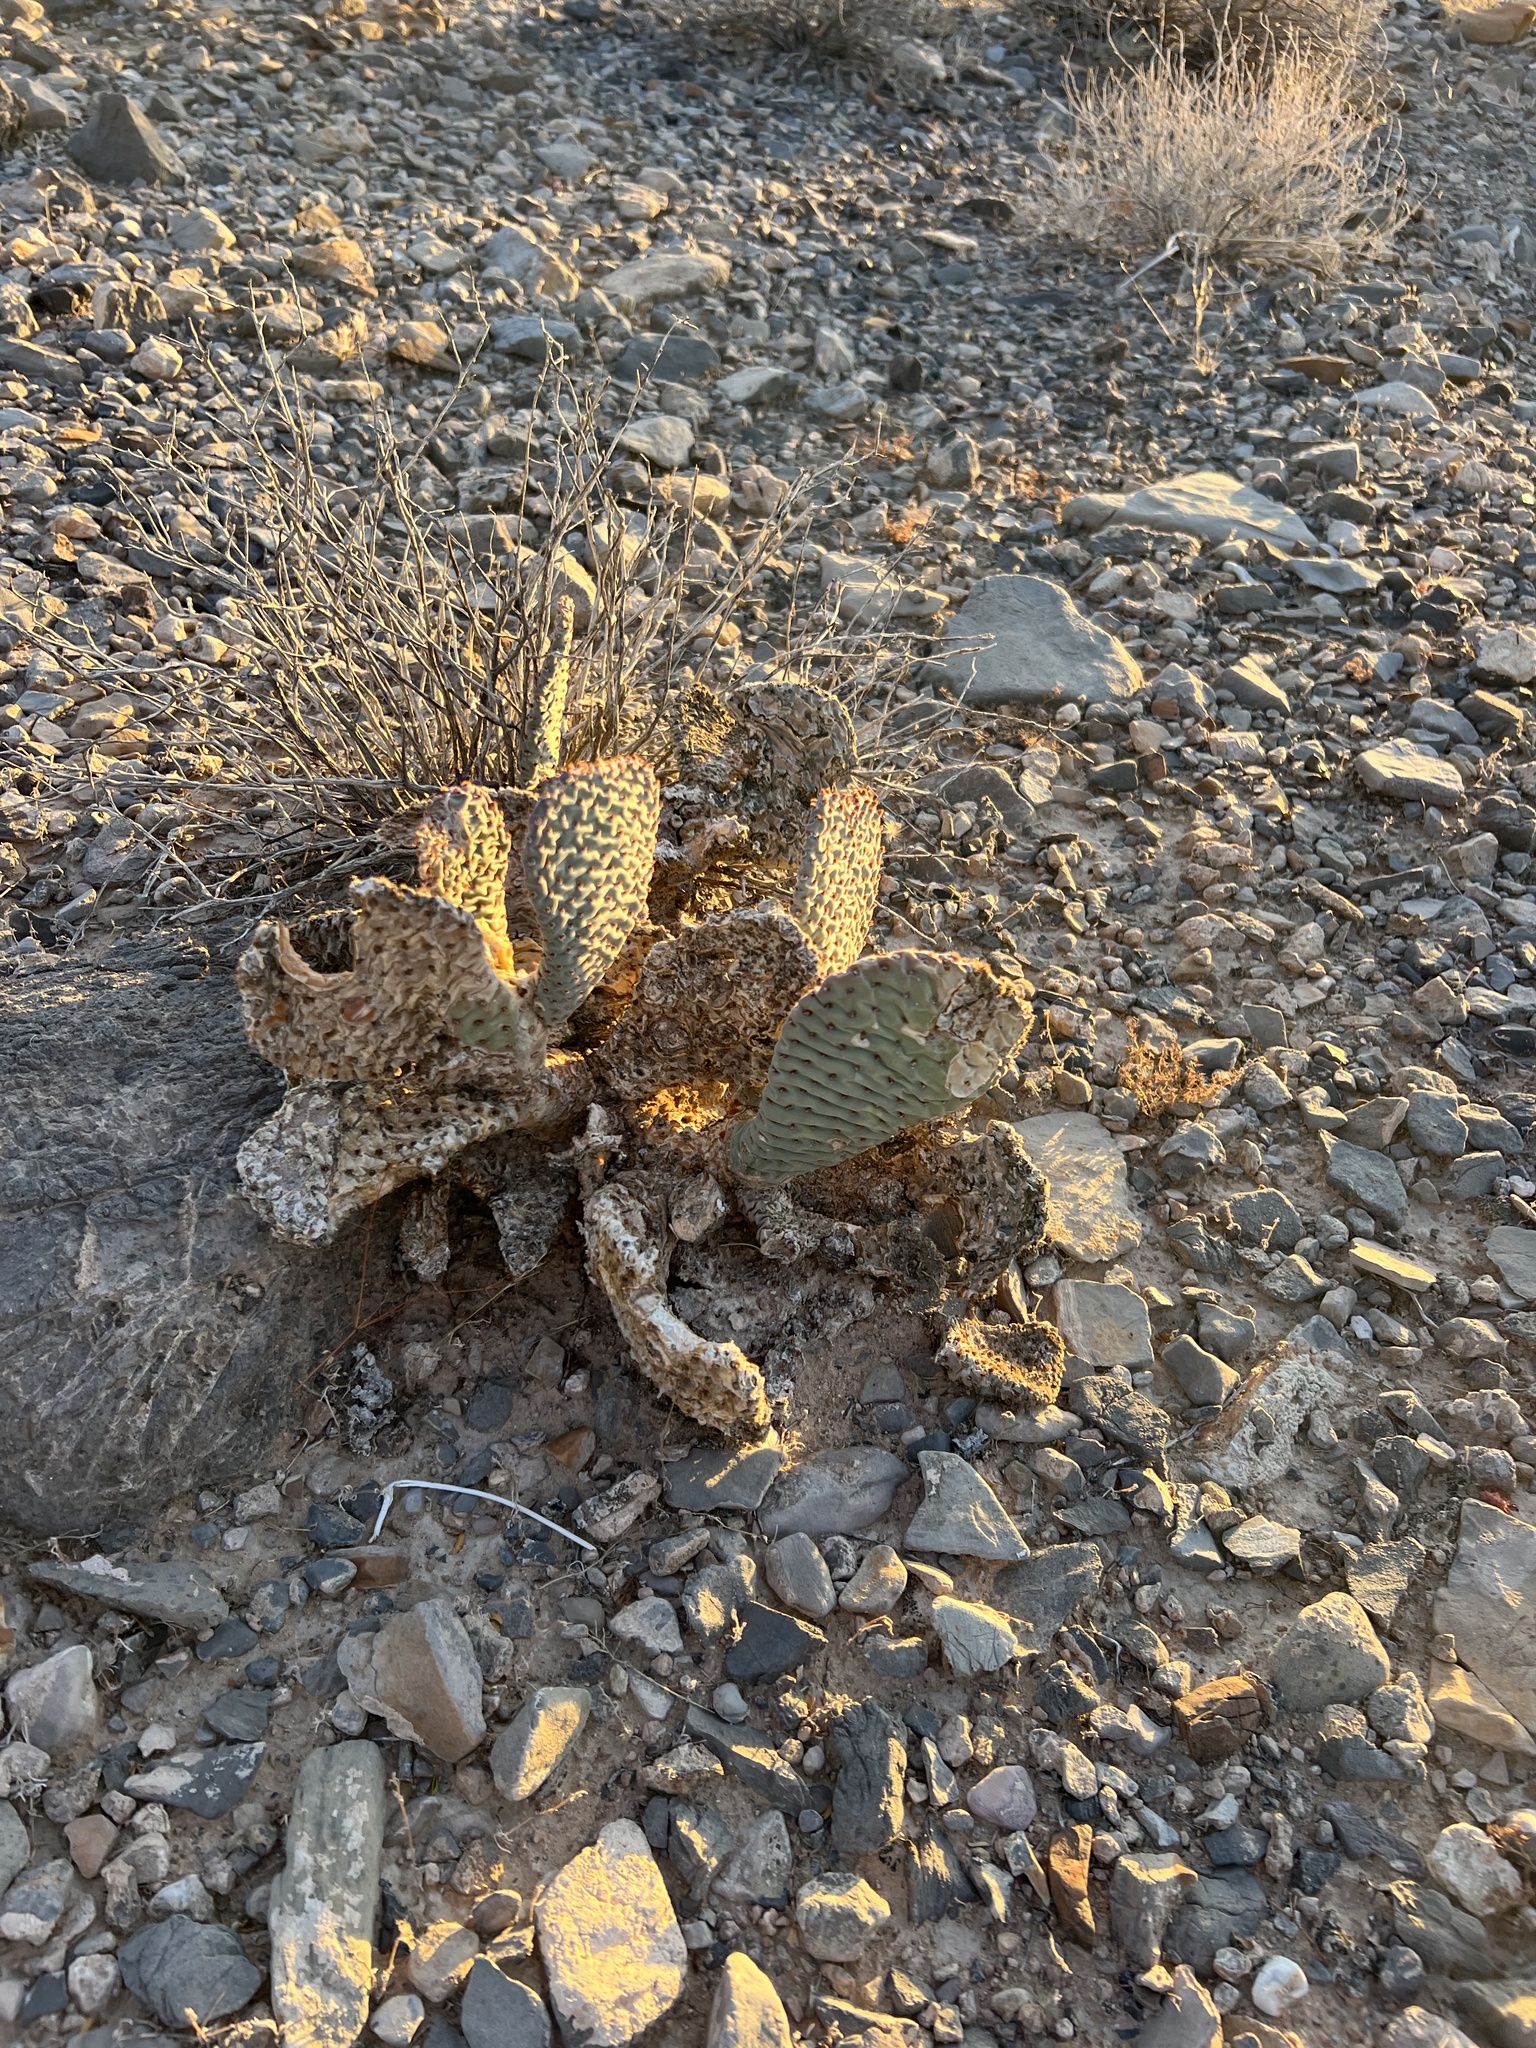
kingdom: Plantae
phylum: Tracheophyta
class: Magnoliopsida
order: Caryophyllales
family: Cactaceae
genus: Opuntia
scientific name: Opuntia basilaris
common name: Beavertail prickly-pear
